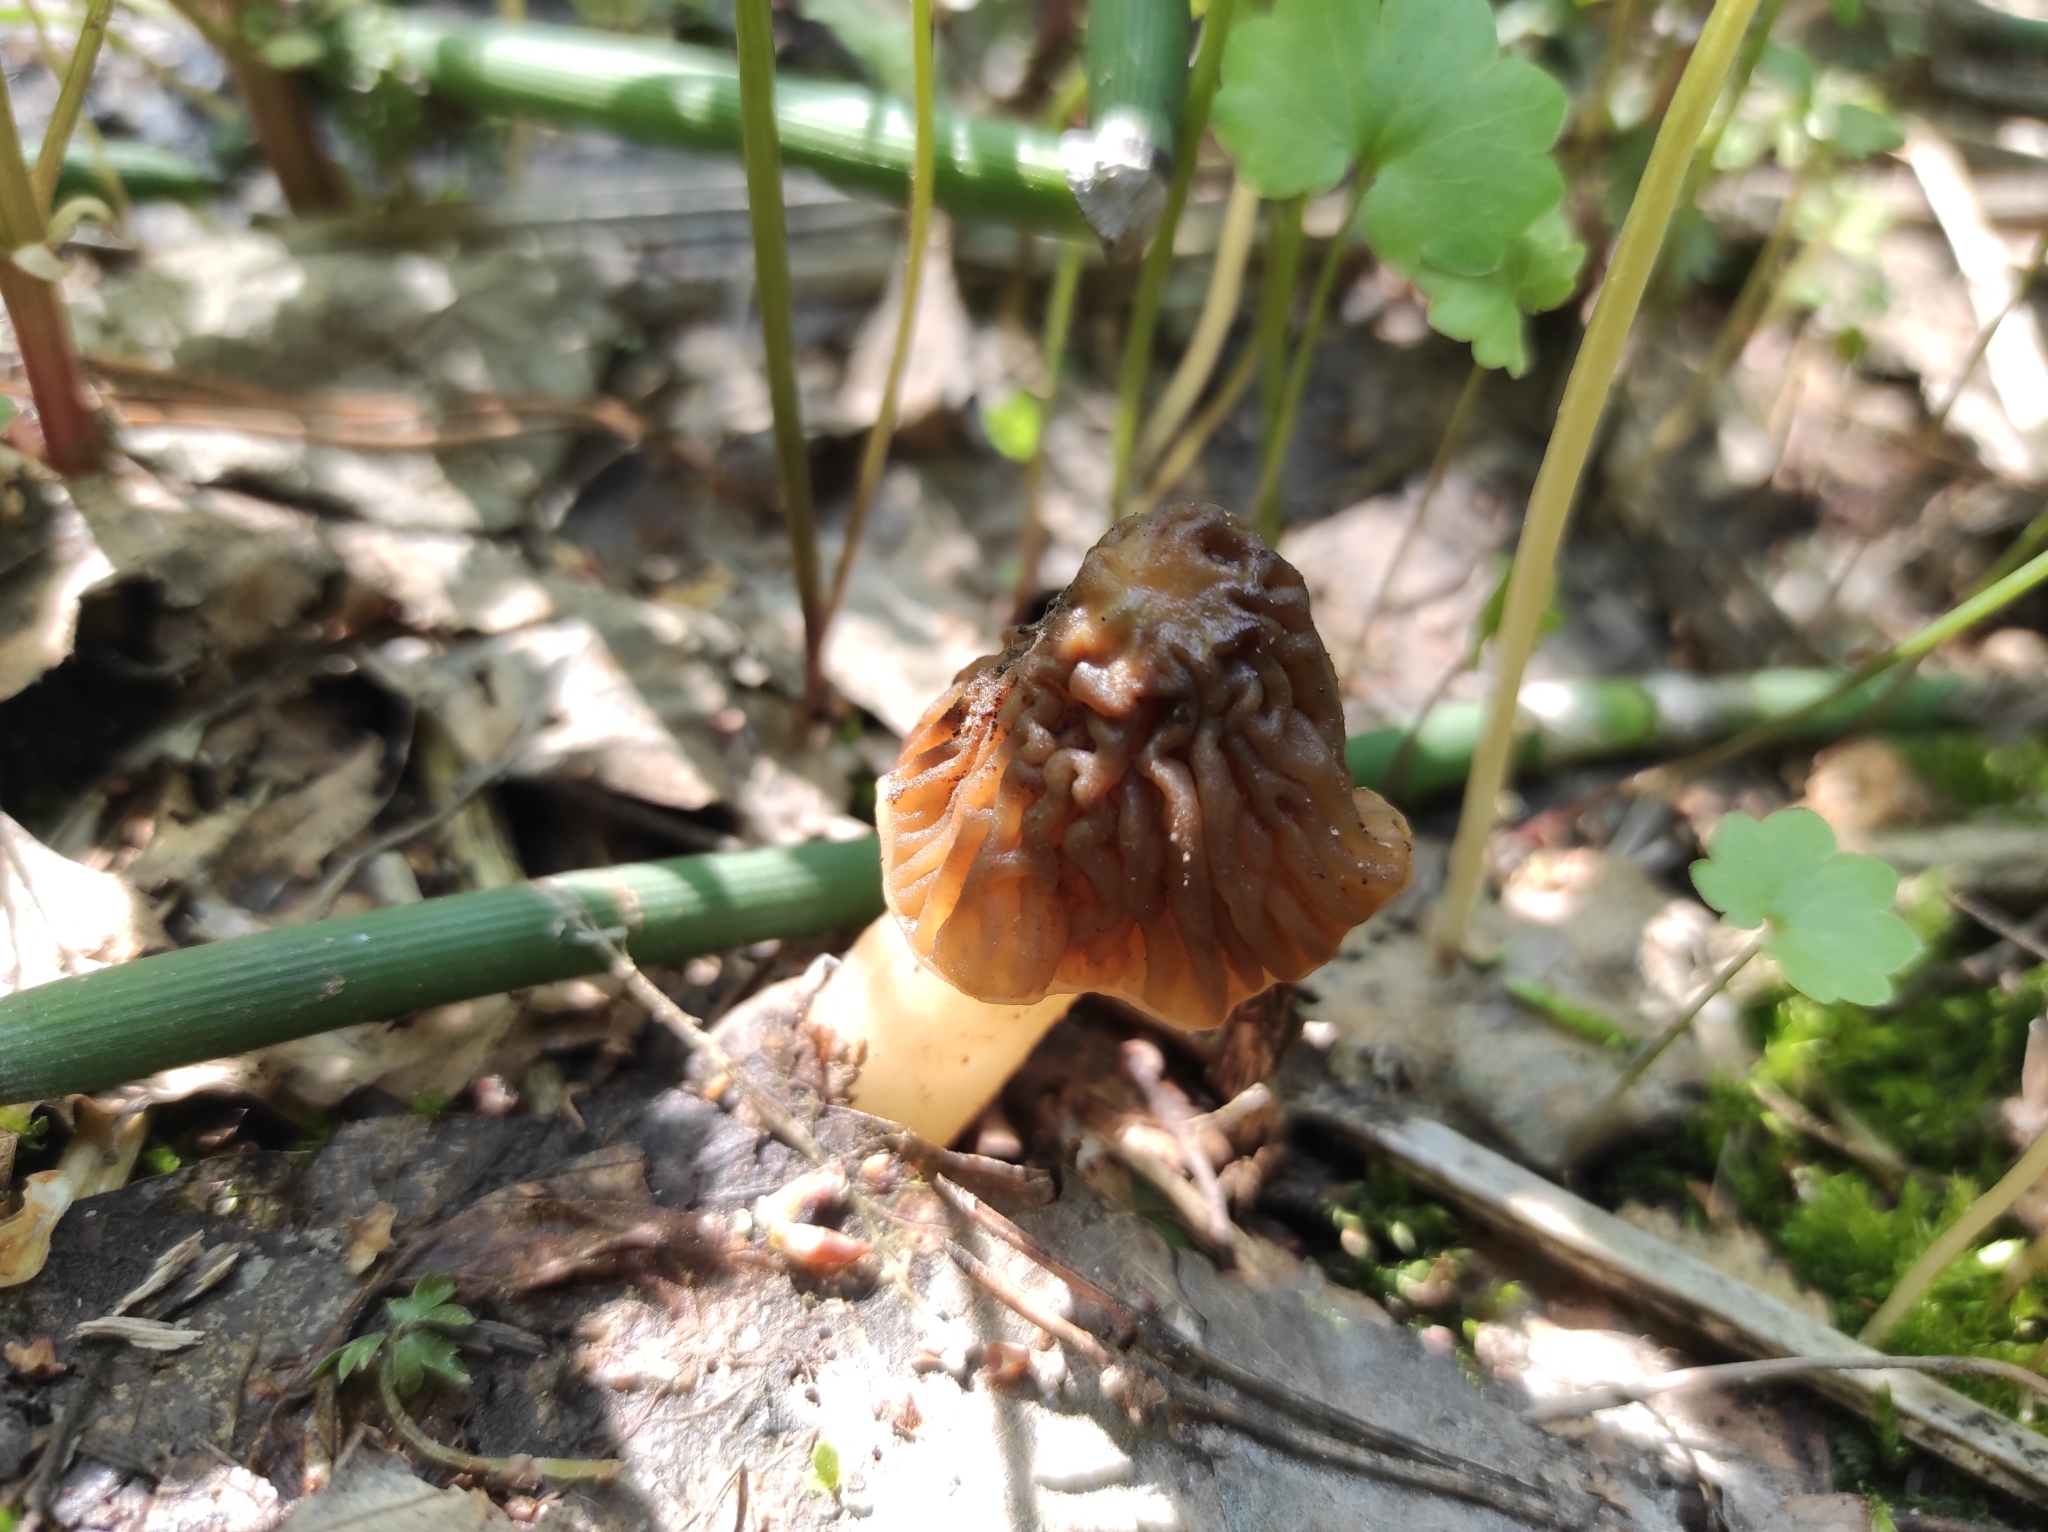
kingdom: Fungi
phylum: Ascomycota
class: Pezizomycetes
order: Pezizales
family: Morchellaceae
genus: Verpa
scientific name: Verpa bohemica
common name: Wrinkled thimble morel
